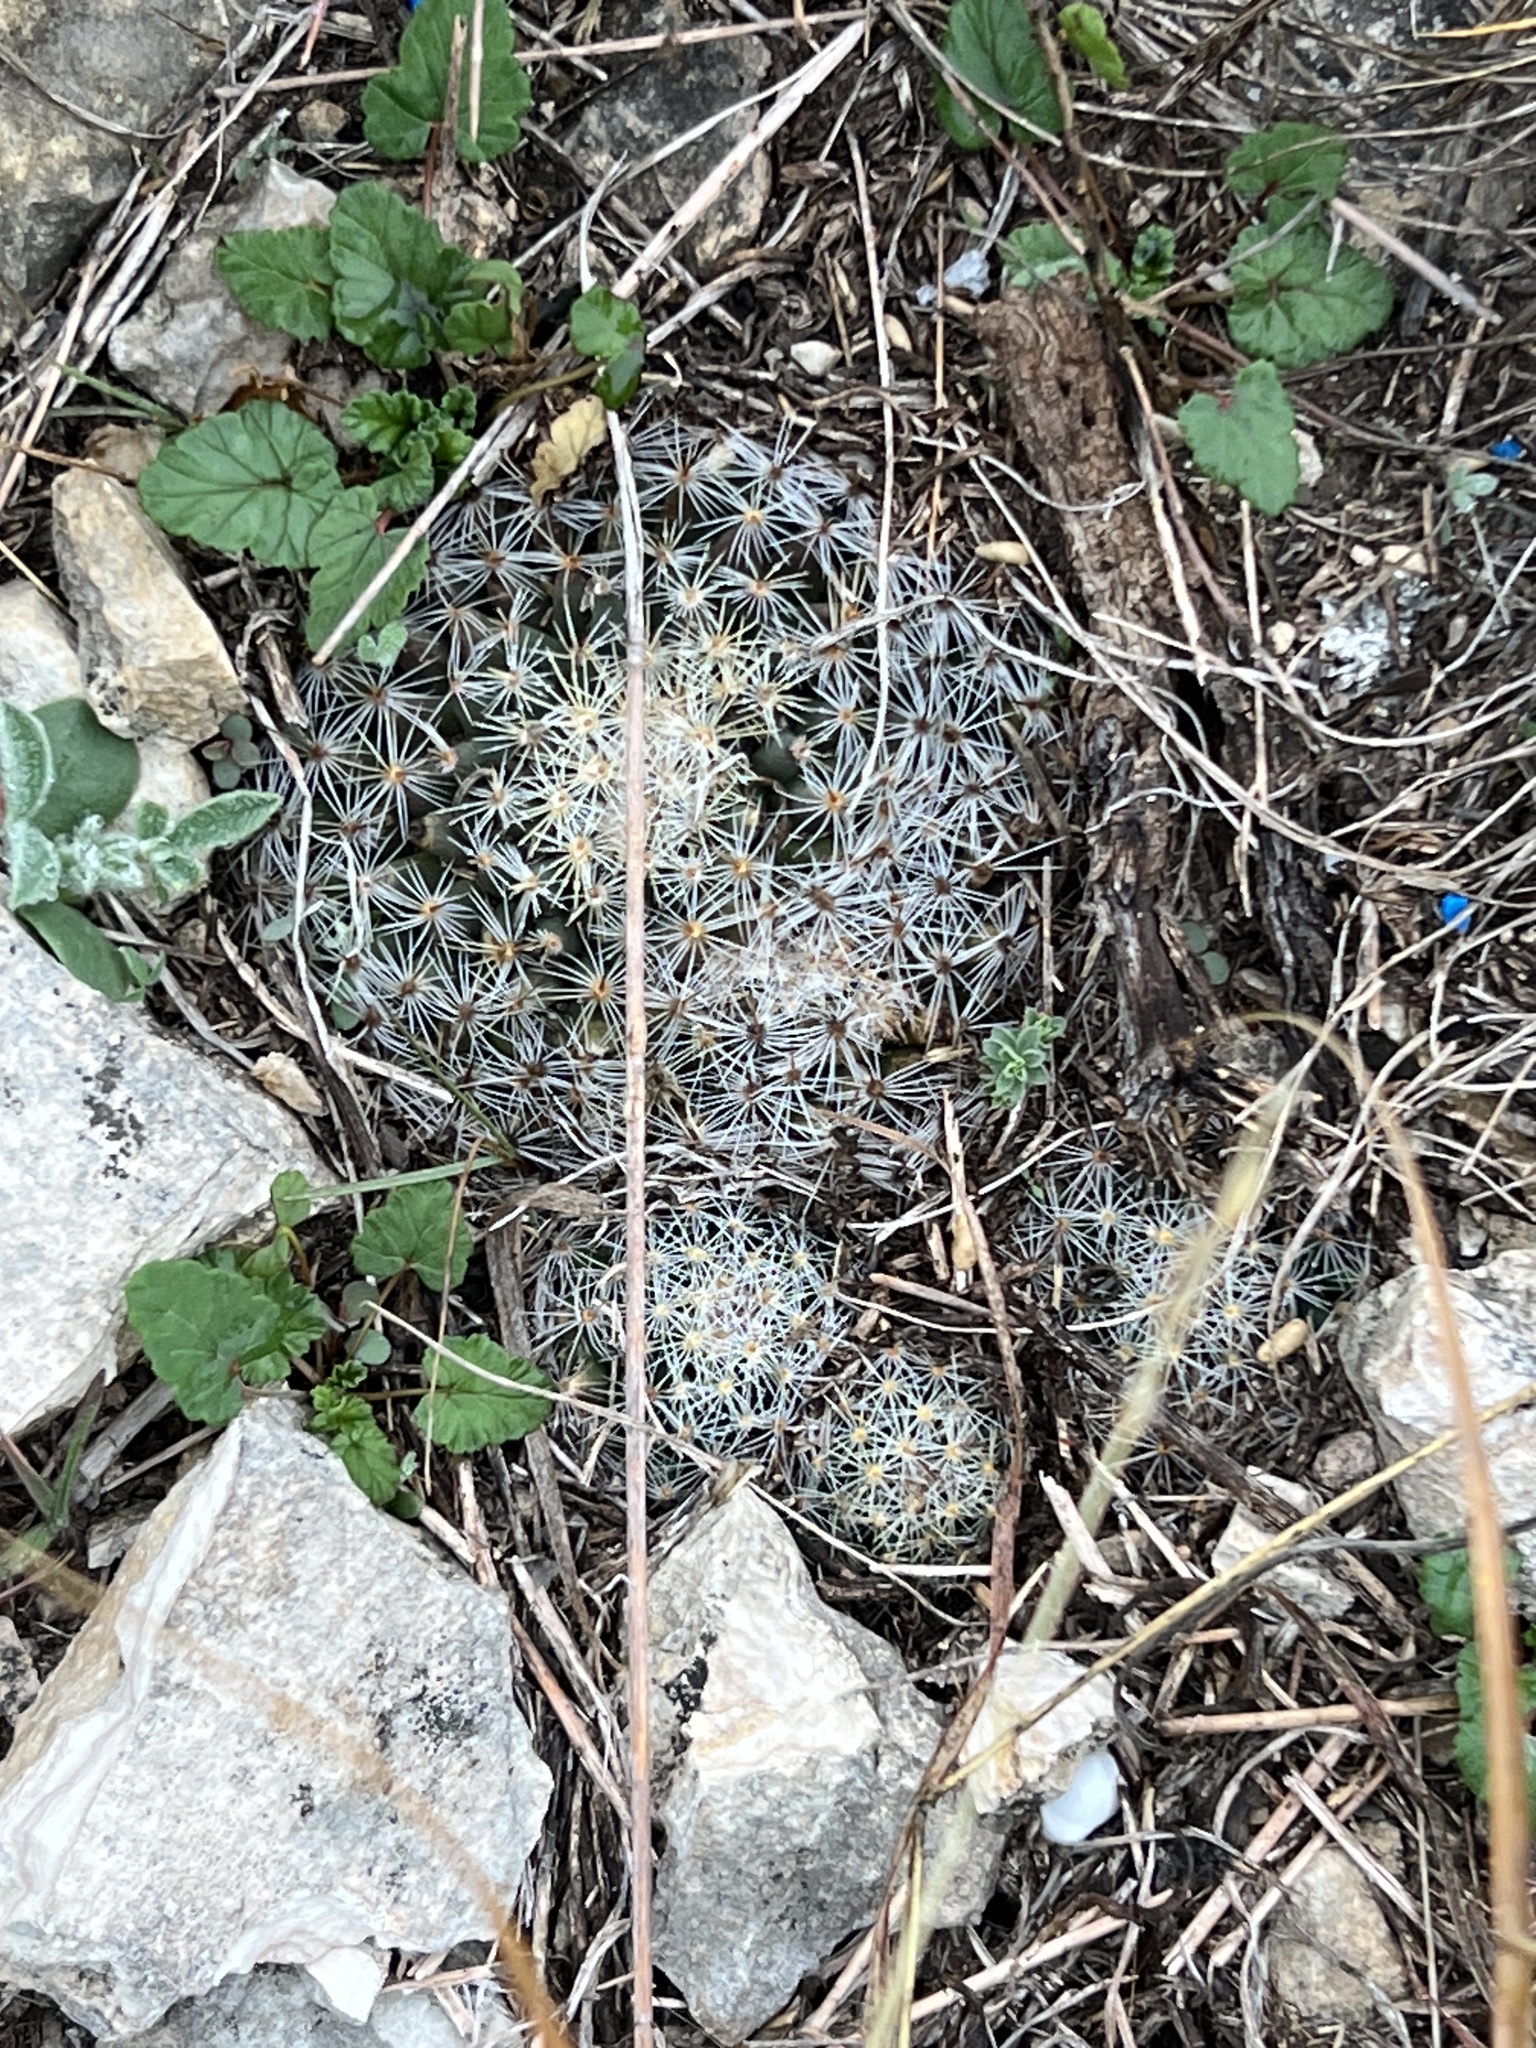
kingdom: Plantae
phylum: Tracheophyta
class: Magnoliopsida
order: Caryophyllales
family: Cactaceae
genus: Mammillaria
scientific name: Mammillaria heyderi
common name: Little nipple cactus
